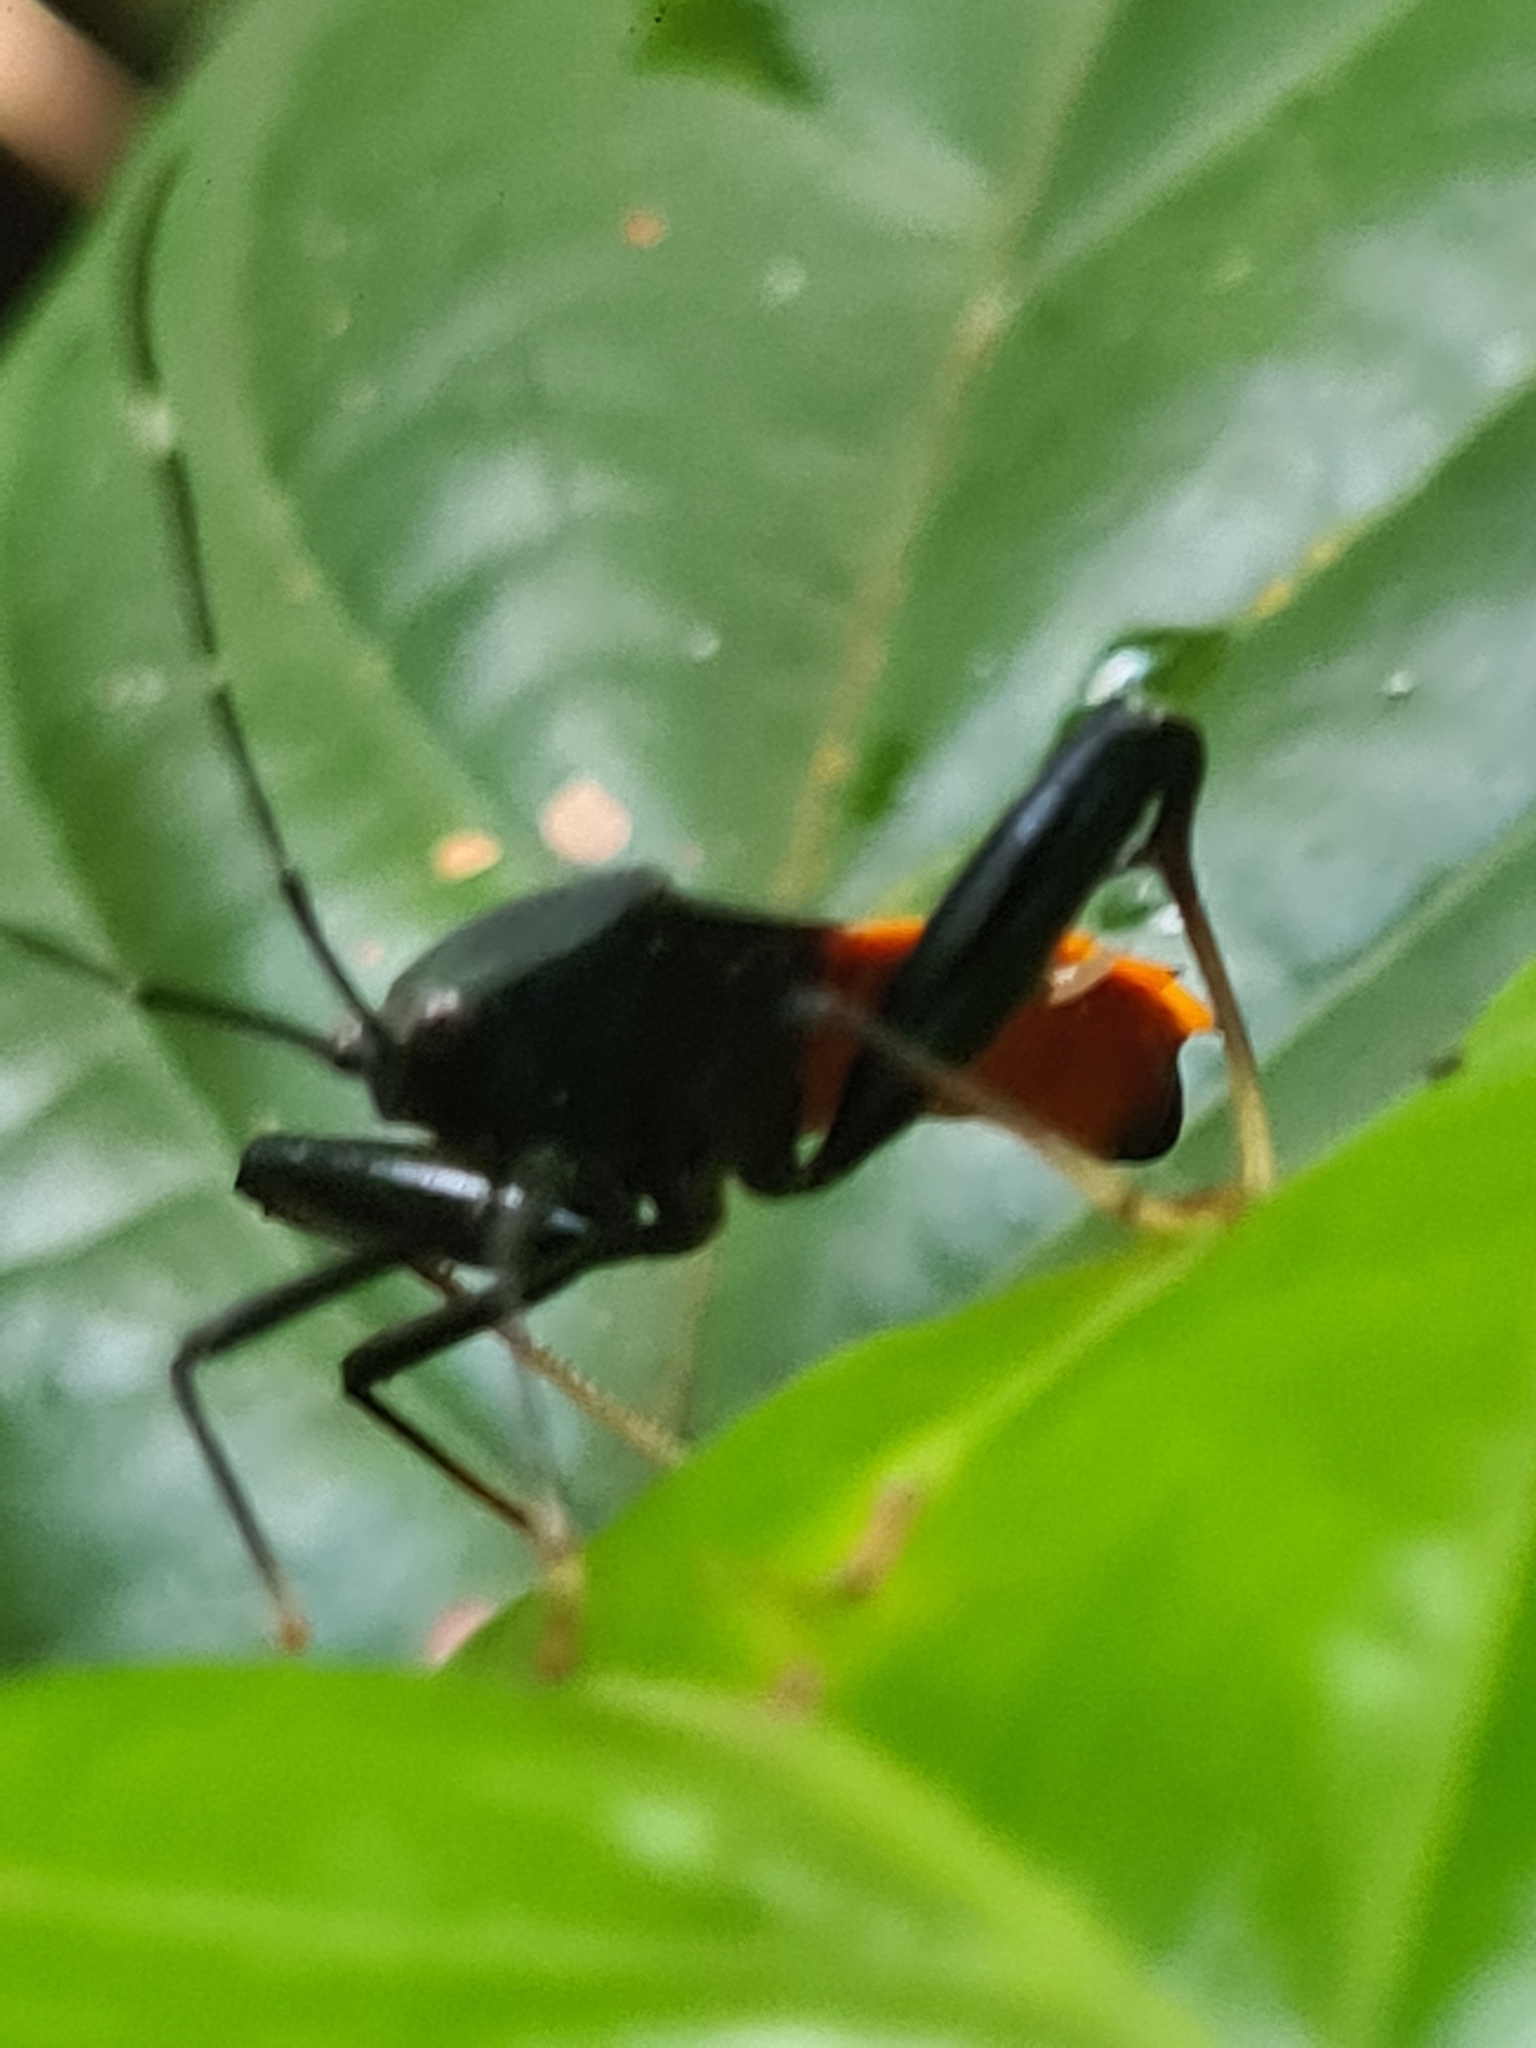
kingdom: Animalia
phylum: Arthropoda
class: Insecta
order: Hemiptera
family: Coreidae
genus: Nematopus
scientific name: Nematopus indus
